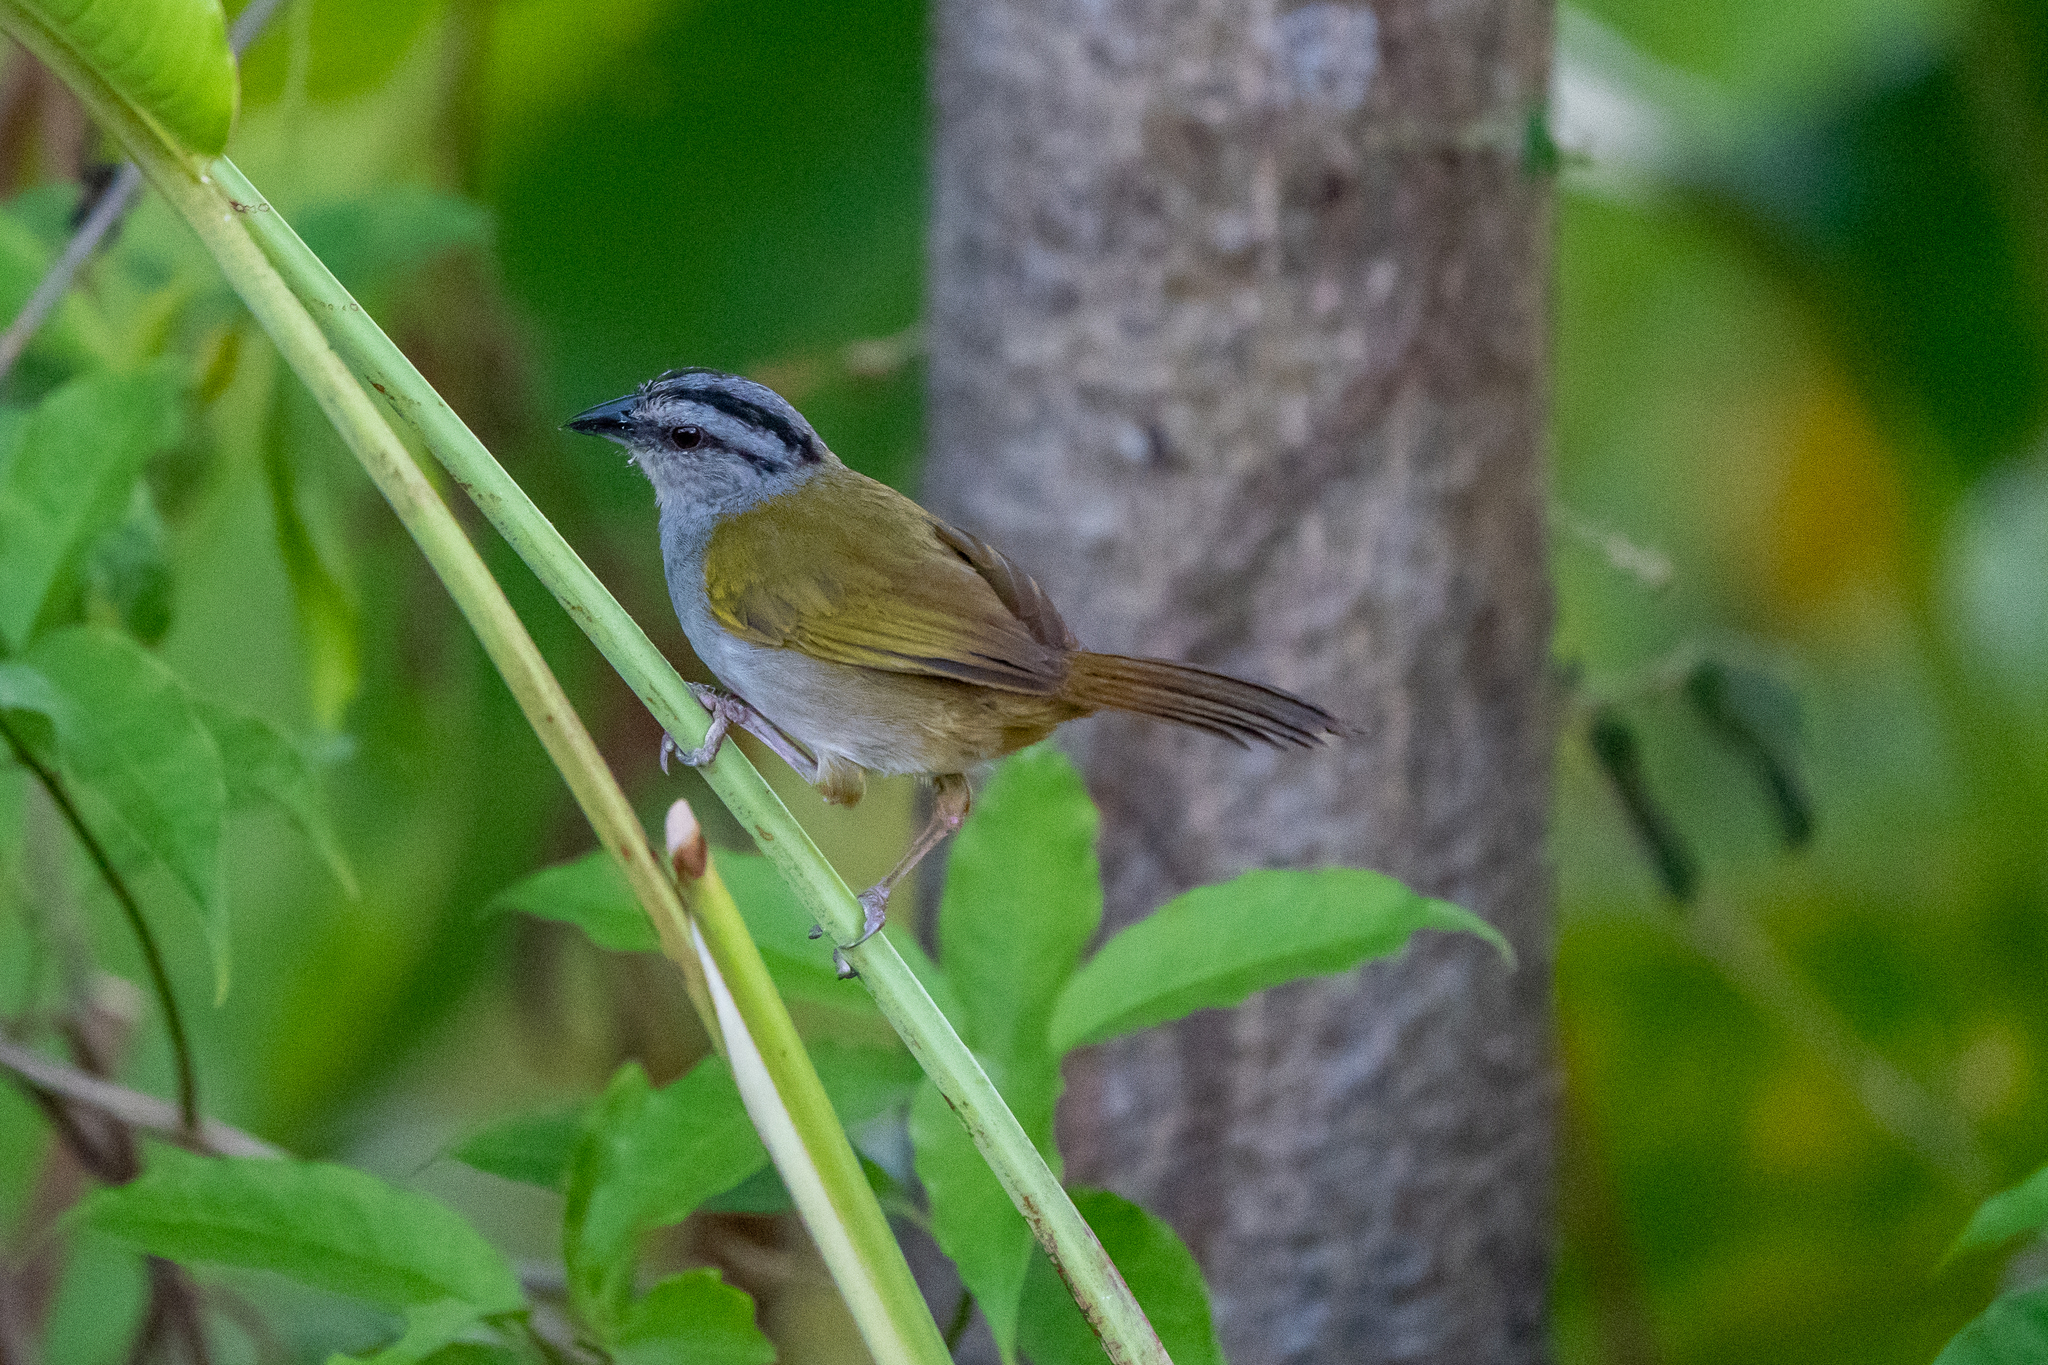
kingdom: Animalia
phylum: Chordata
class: Aves
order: Passeriformes
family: Passerellidae
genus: Arremonops
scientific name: Arremonops conirostris
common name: Black-striped sparrow
